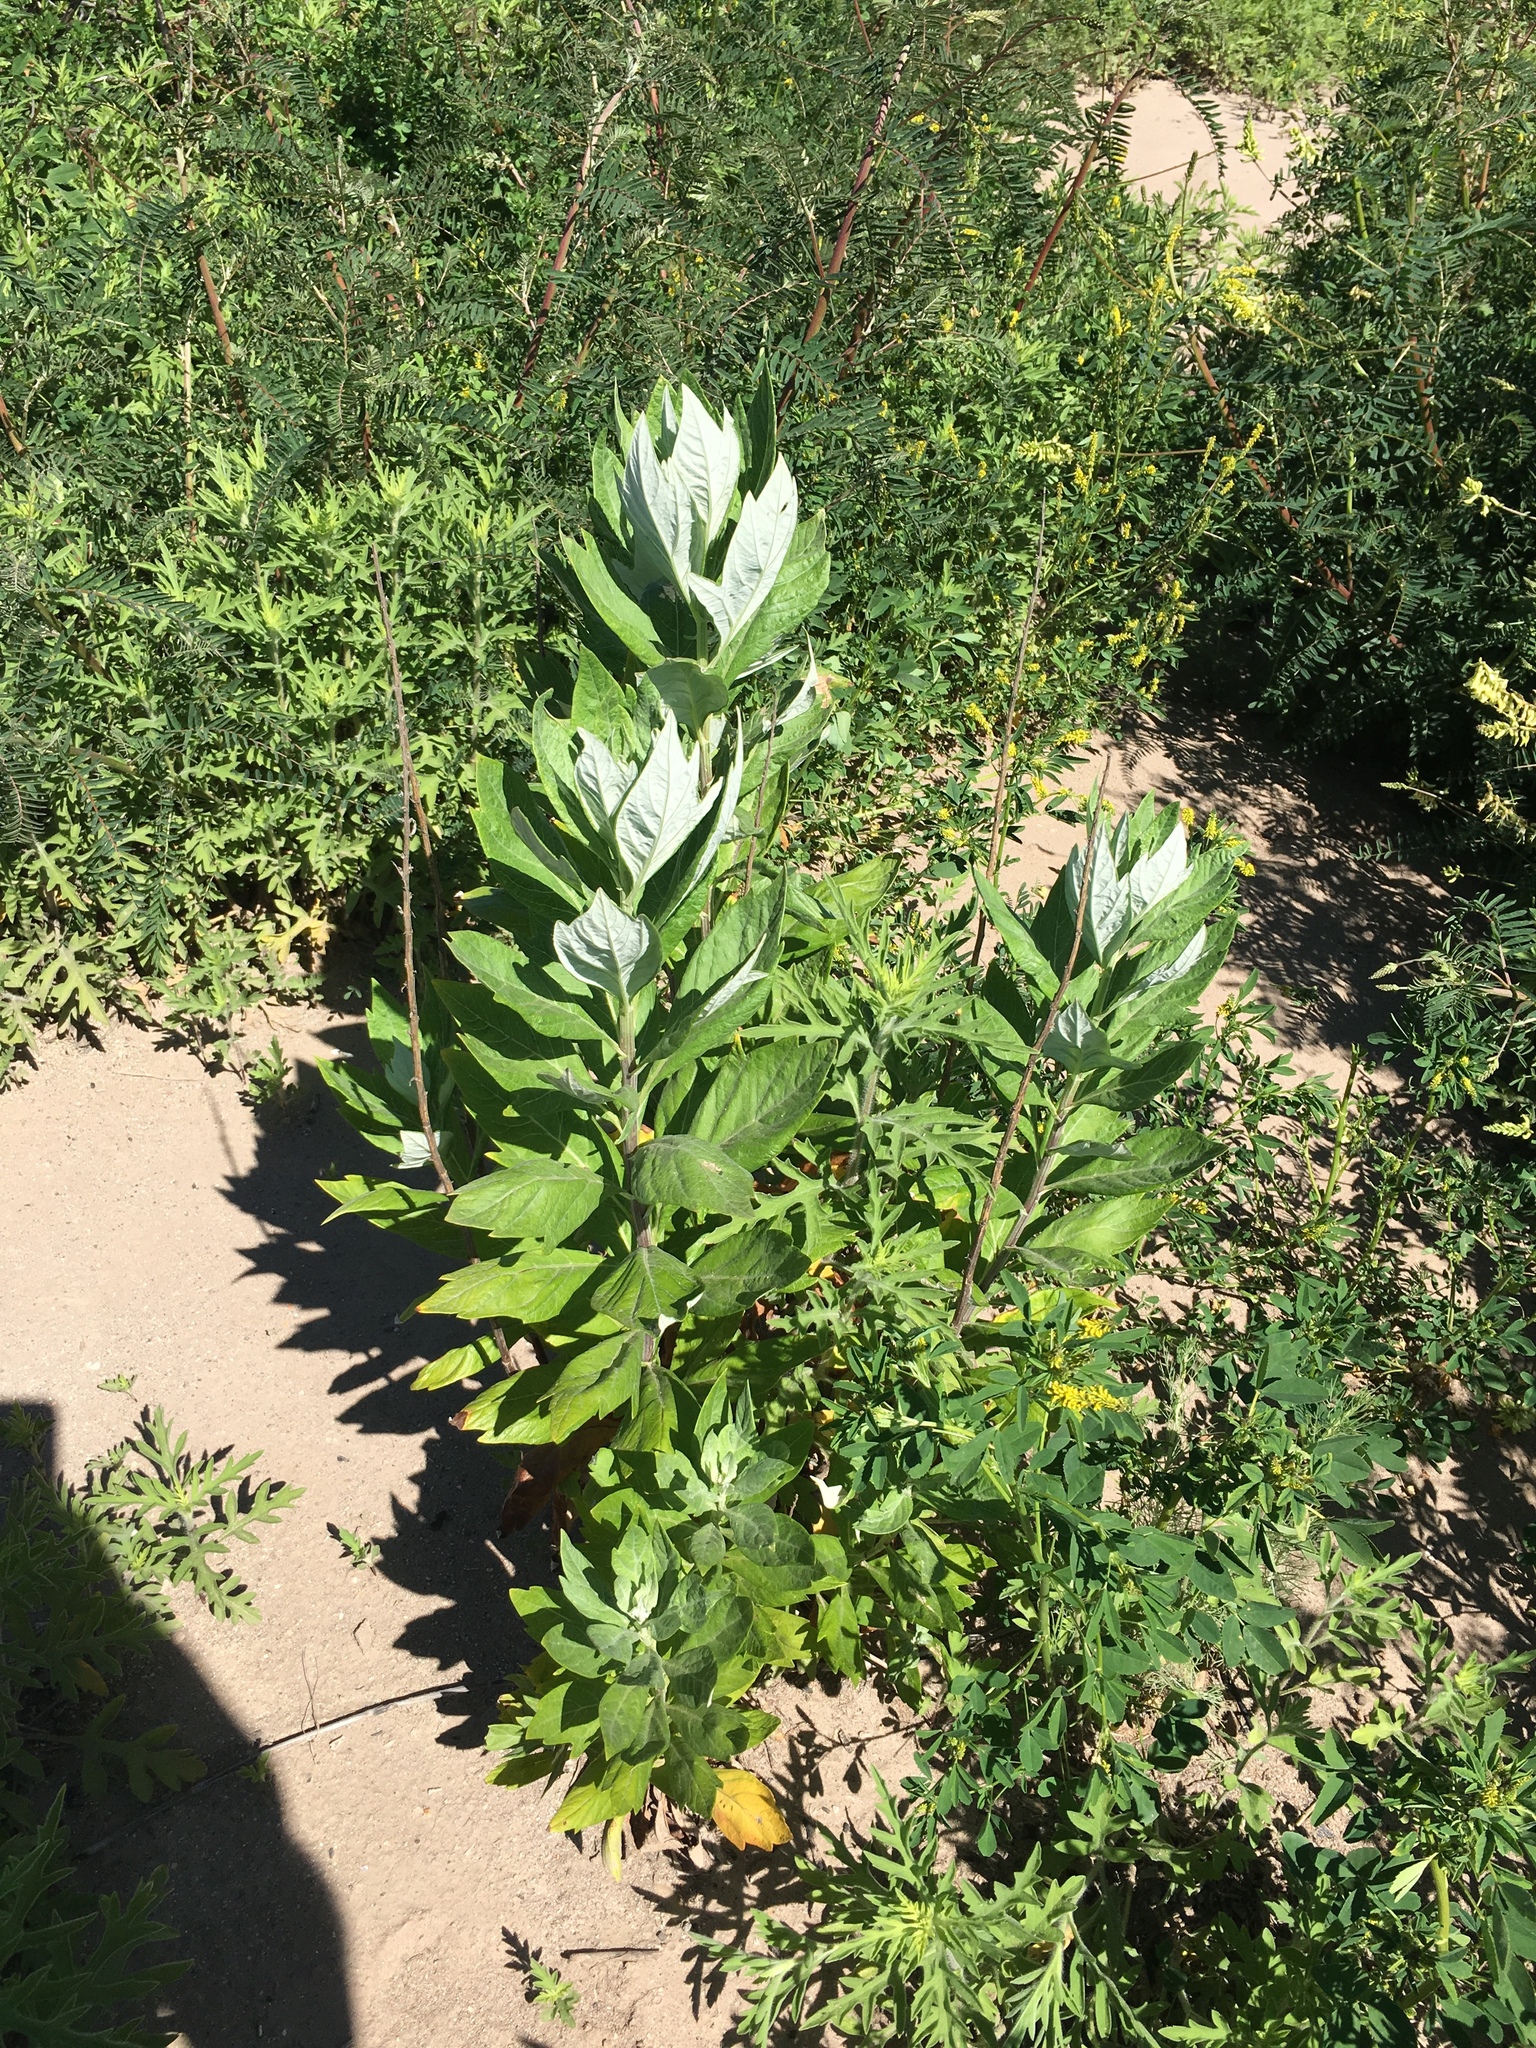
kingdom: Plantae
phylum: Tracheophyta
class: Magnoliopsida
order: Asterales
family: Asteraceae
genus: Artemisia
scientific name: Artemisia douglasiana
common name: Northwest mugwort
